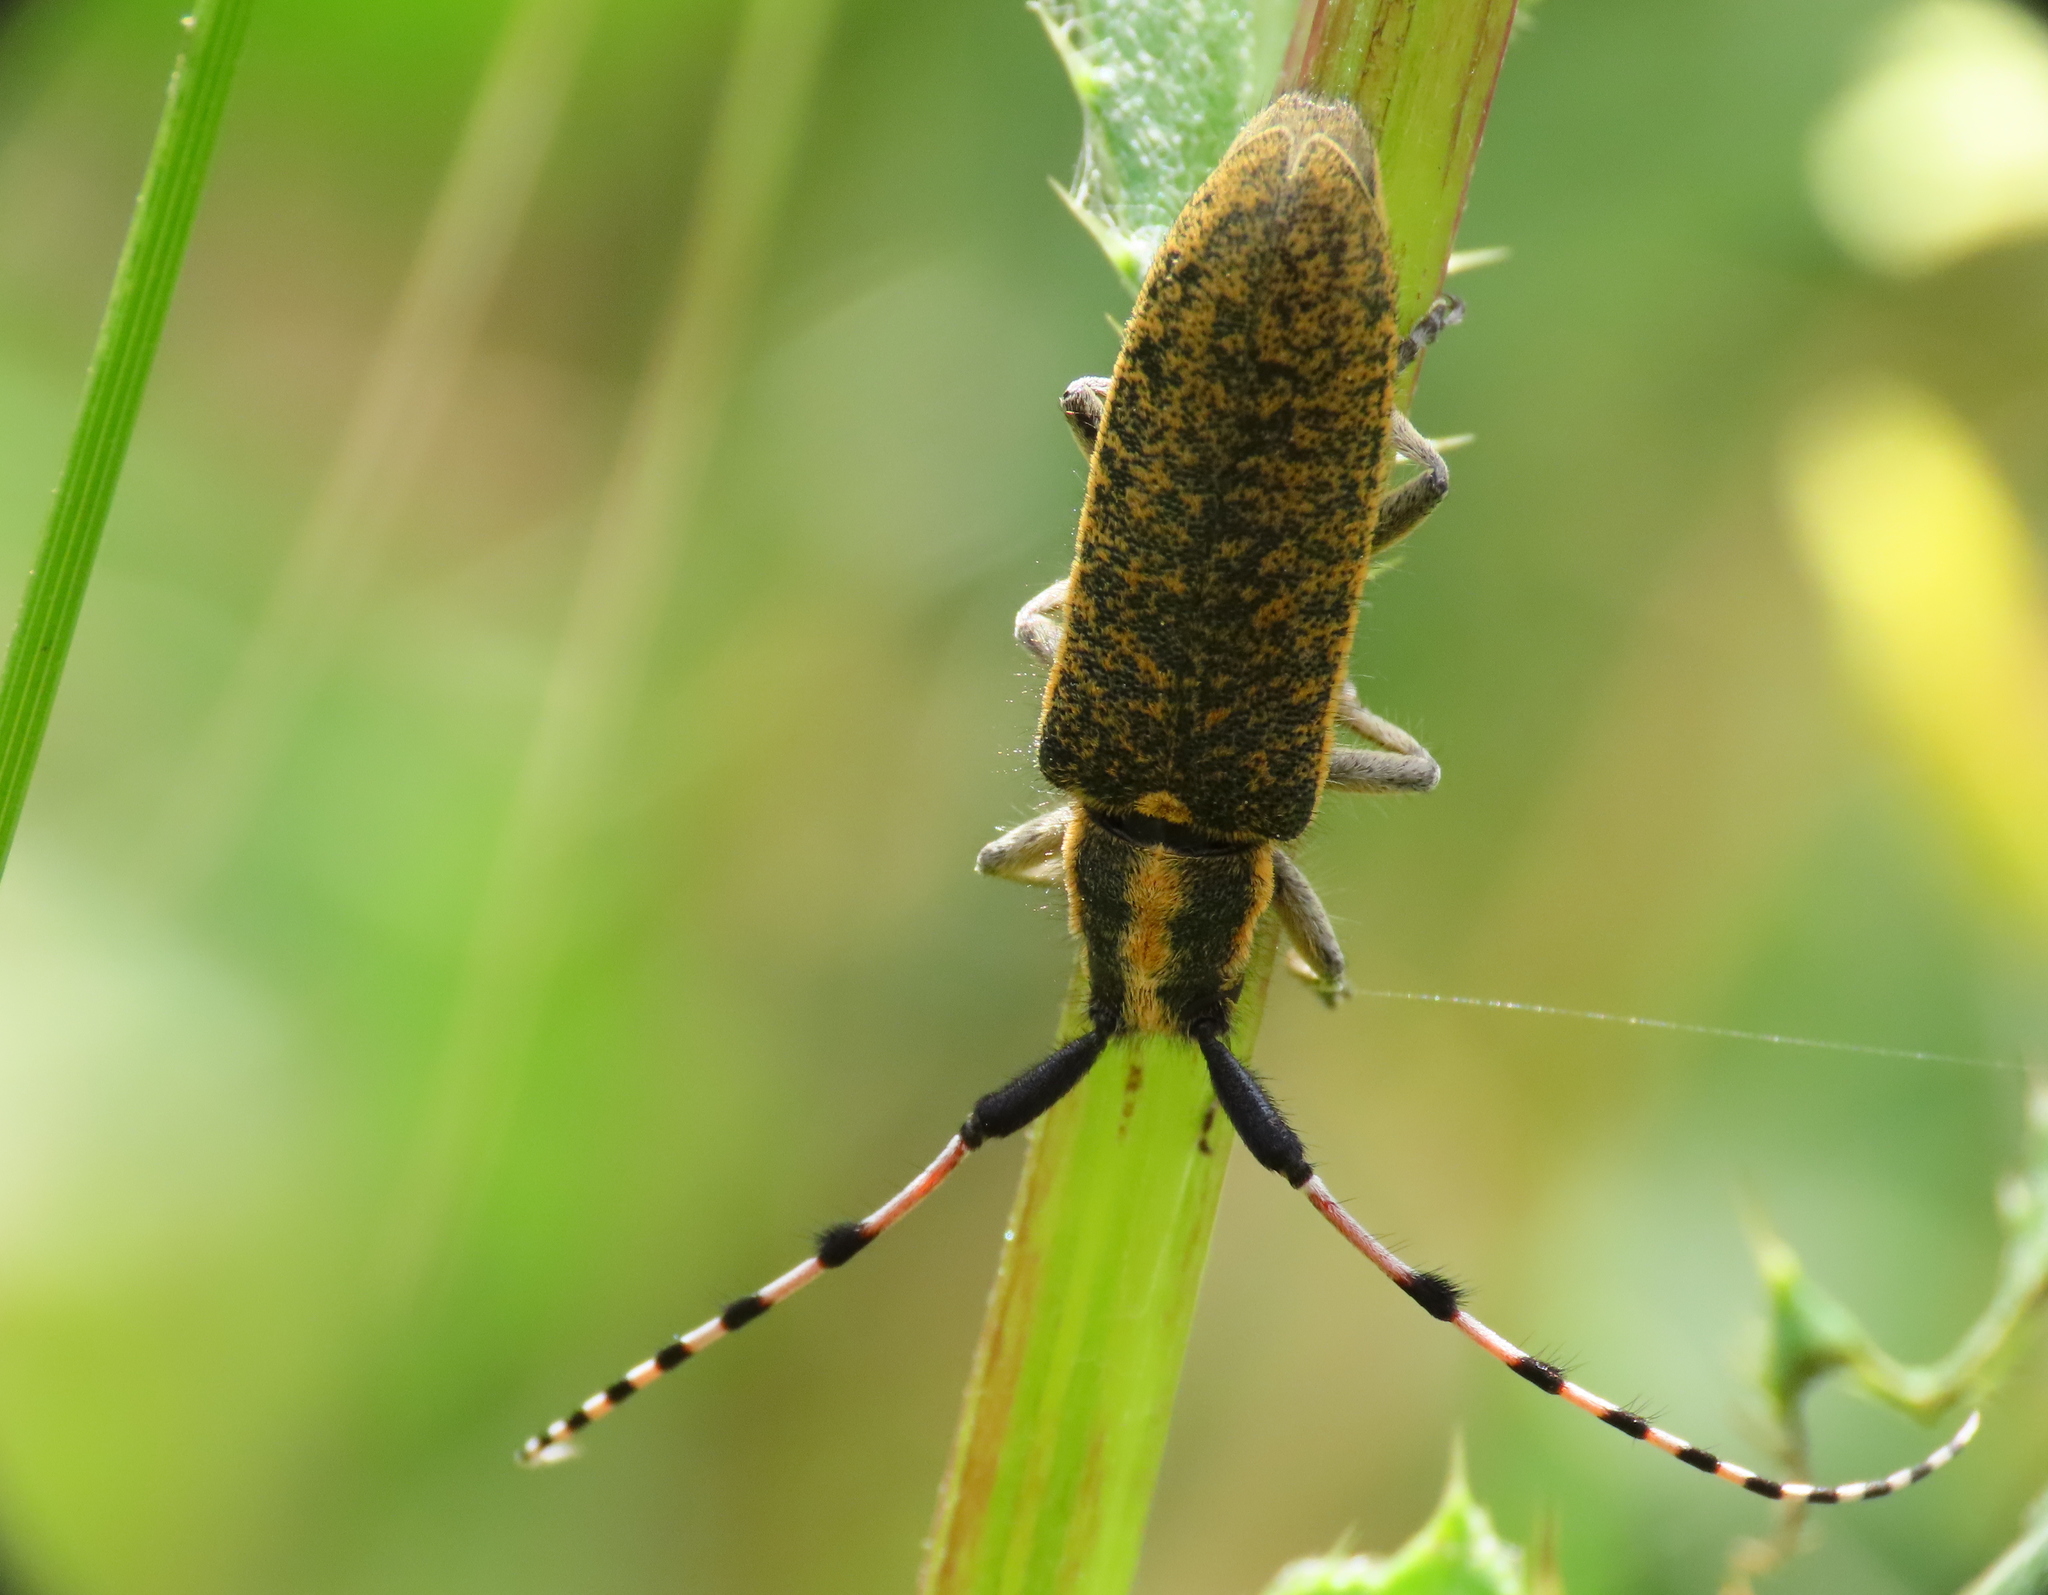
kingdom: Animalia
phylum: Arthropoda
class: Insecta
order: Coleoptera
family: Cerambycidae
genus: Agapanthia
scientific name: Agapanthia dahlii
